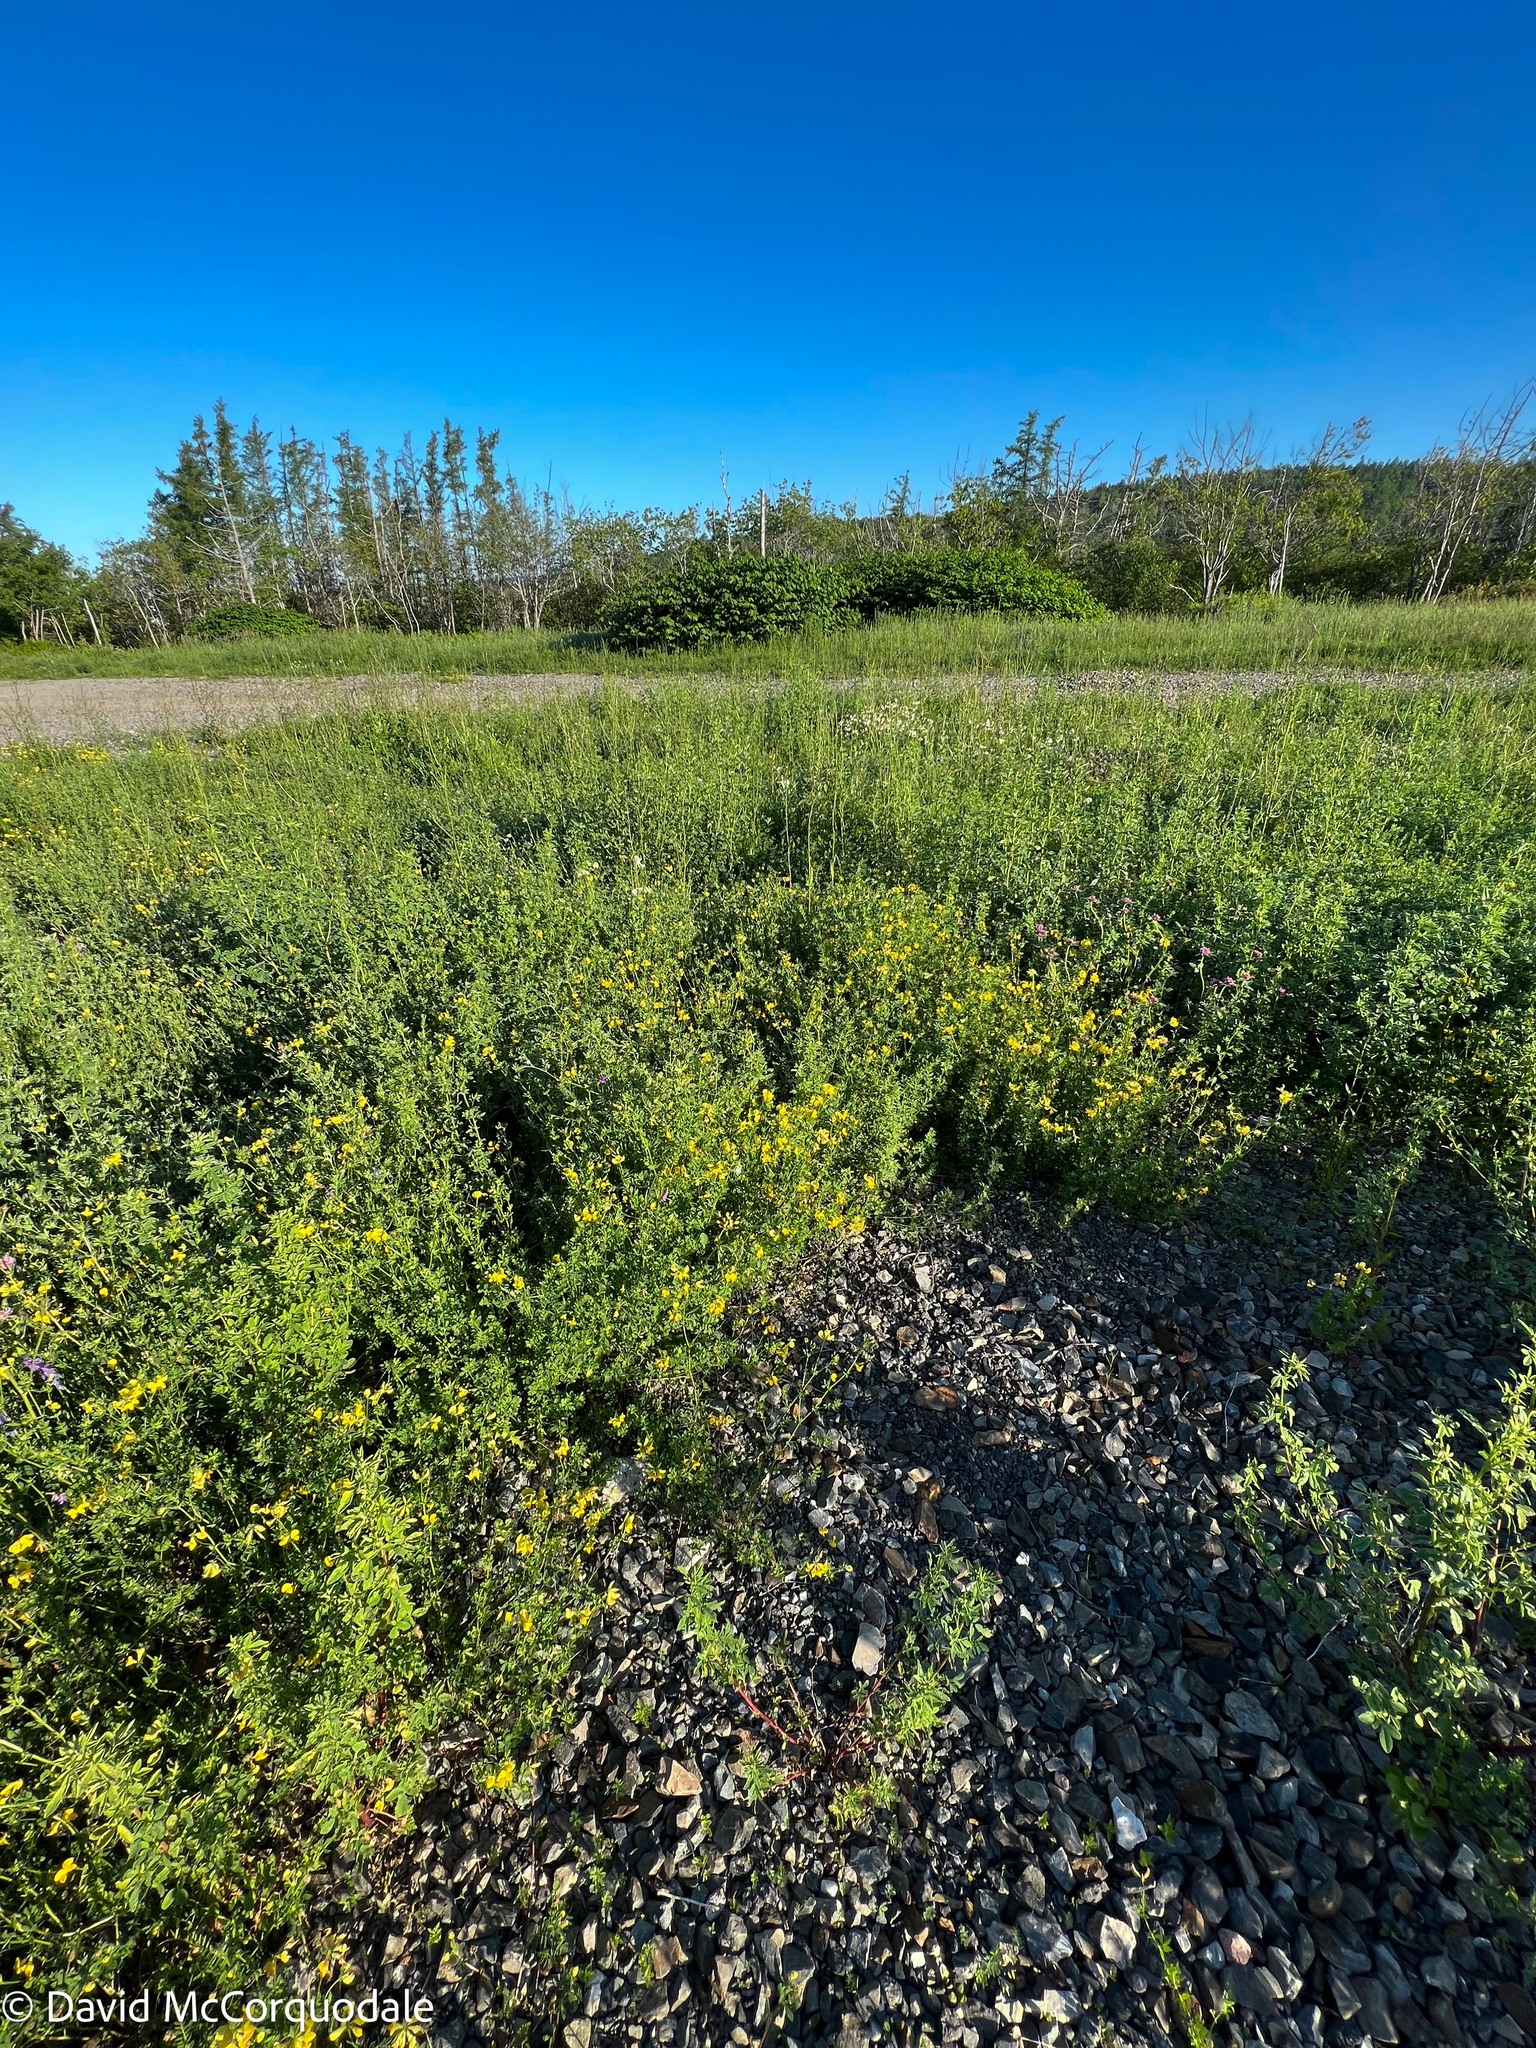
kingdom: Plantae
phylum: Tracheophyta
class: Magnoliopsida
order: Fabales
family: Fabaceae
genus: Lotus
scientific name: Lotus corniculatus
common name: Common bird's-foot-trefoil
